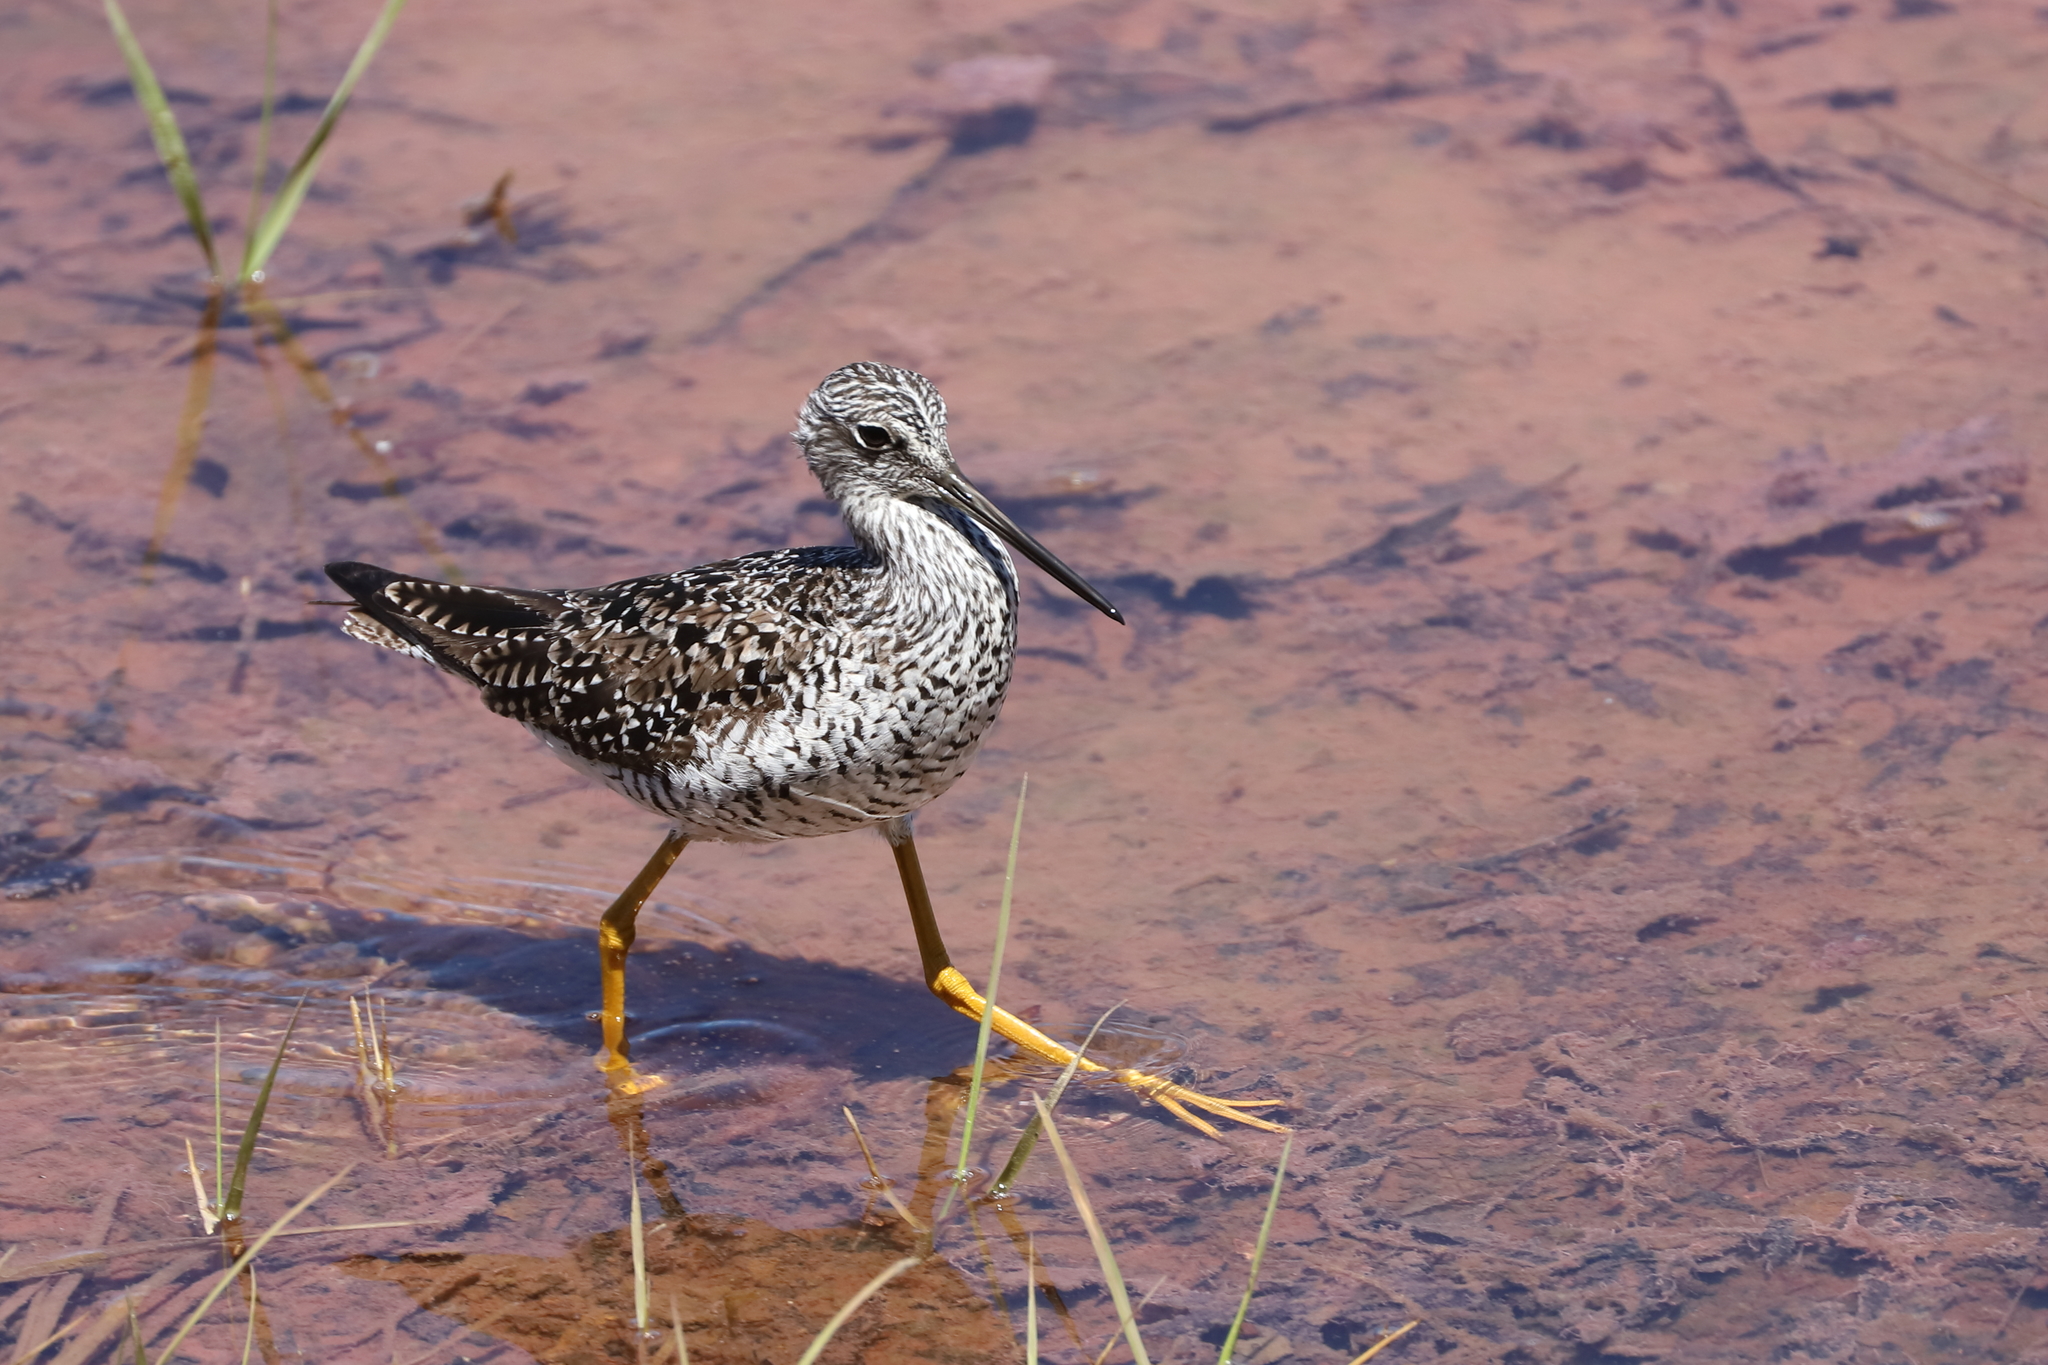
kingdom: Animalia
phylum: Chordata
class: Aves
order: Charadriiformes
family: Scolopacidae
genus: Tringa
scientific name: Tringa melanoleuca
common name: Greater yellowlegs
